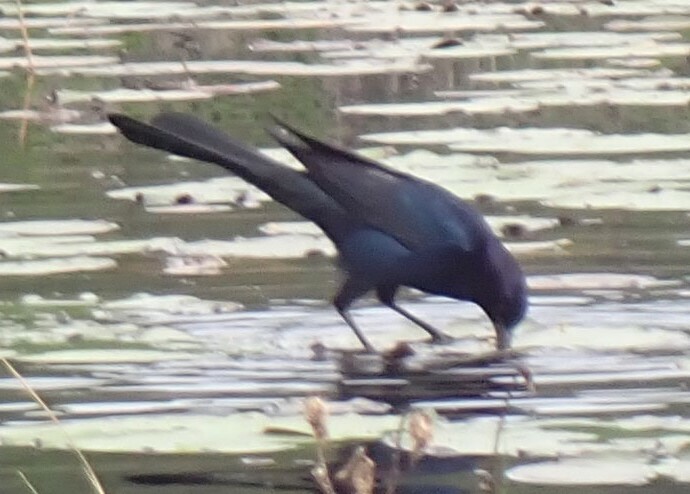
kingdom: Animalia
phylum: Chordata
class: Aves
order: Passeriformes
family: Icteridae
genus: Quiscalus
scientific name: Quiscalus major
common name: Boat-tailed grackle
